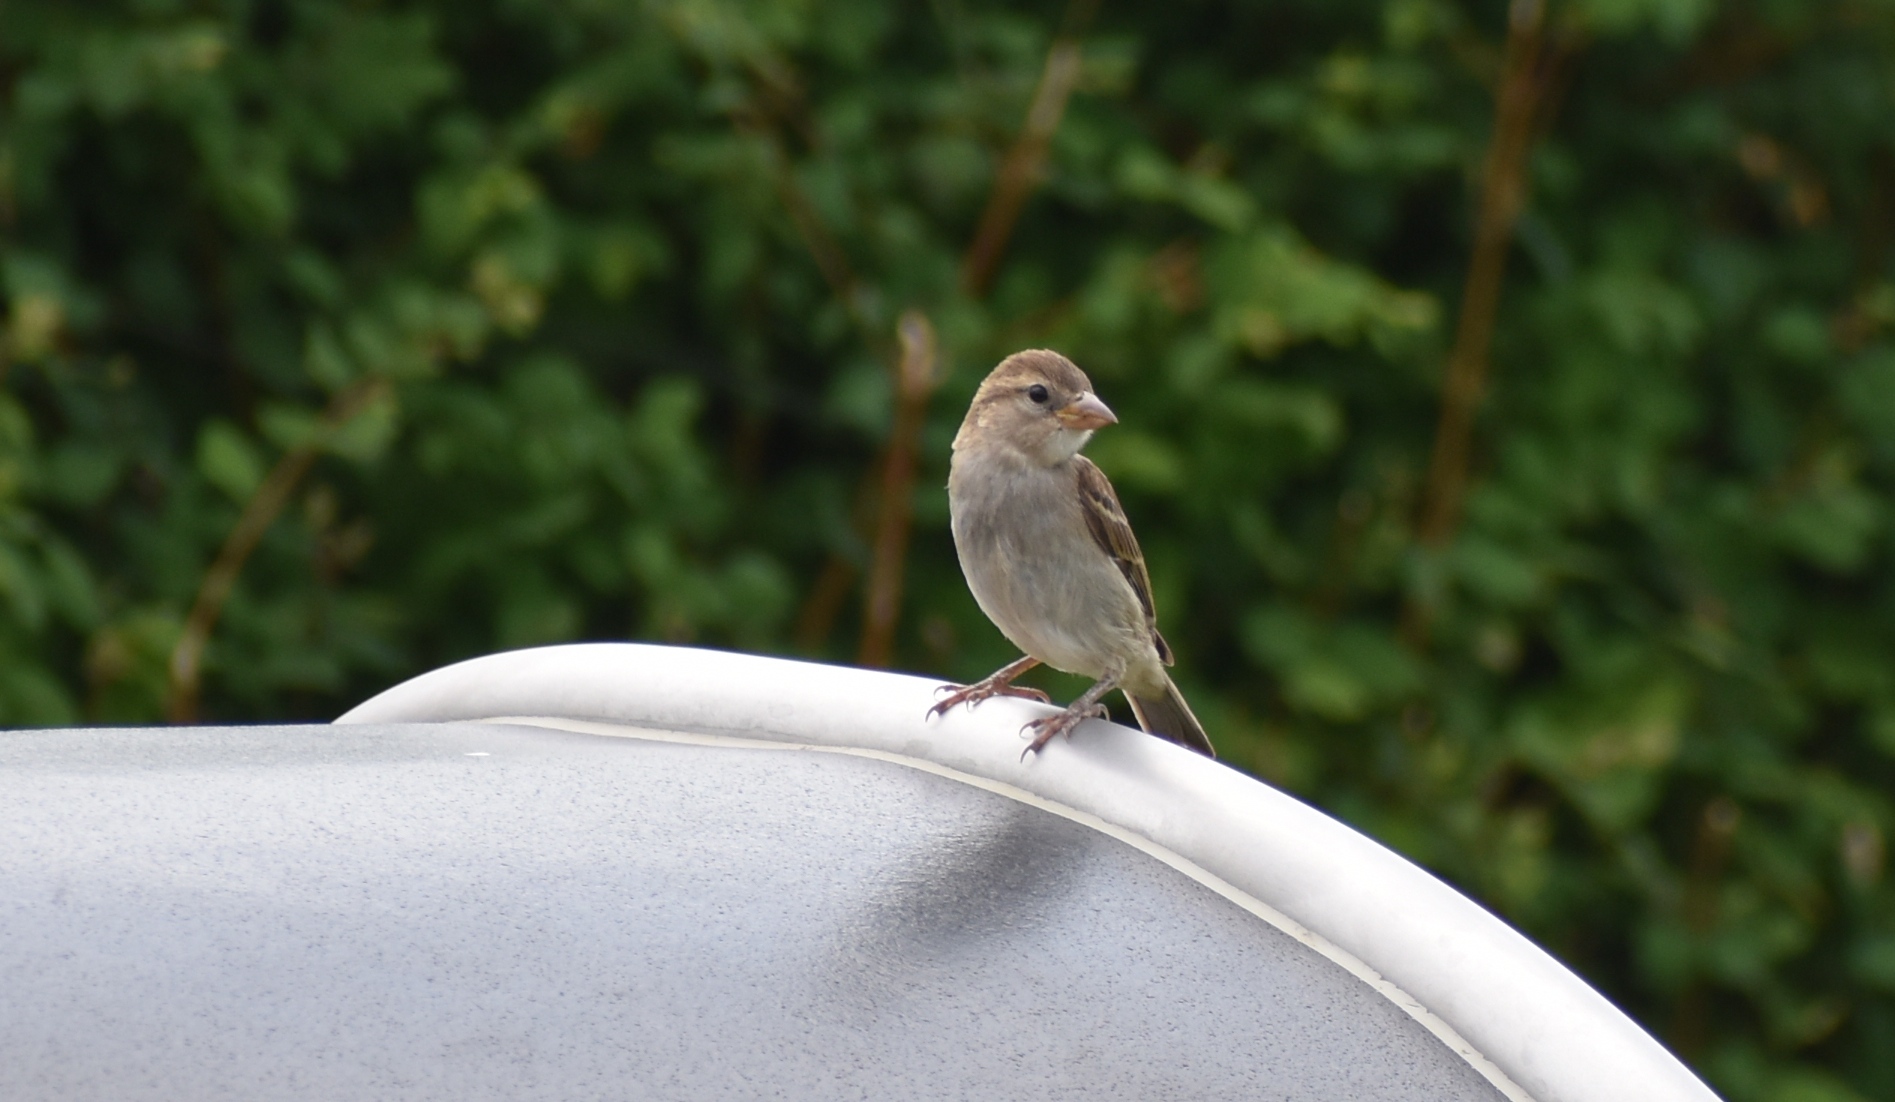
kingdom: Animalia
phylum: Chordata
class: Aves
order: Passeriformes
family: Passeridae
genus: Passer
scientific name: Passer domesticus
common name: House sparrow
